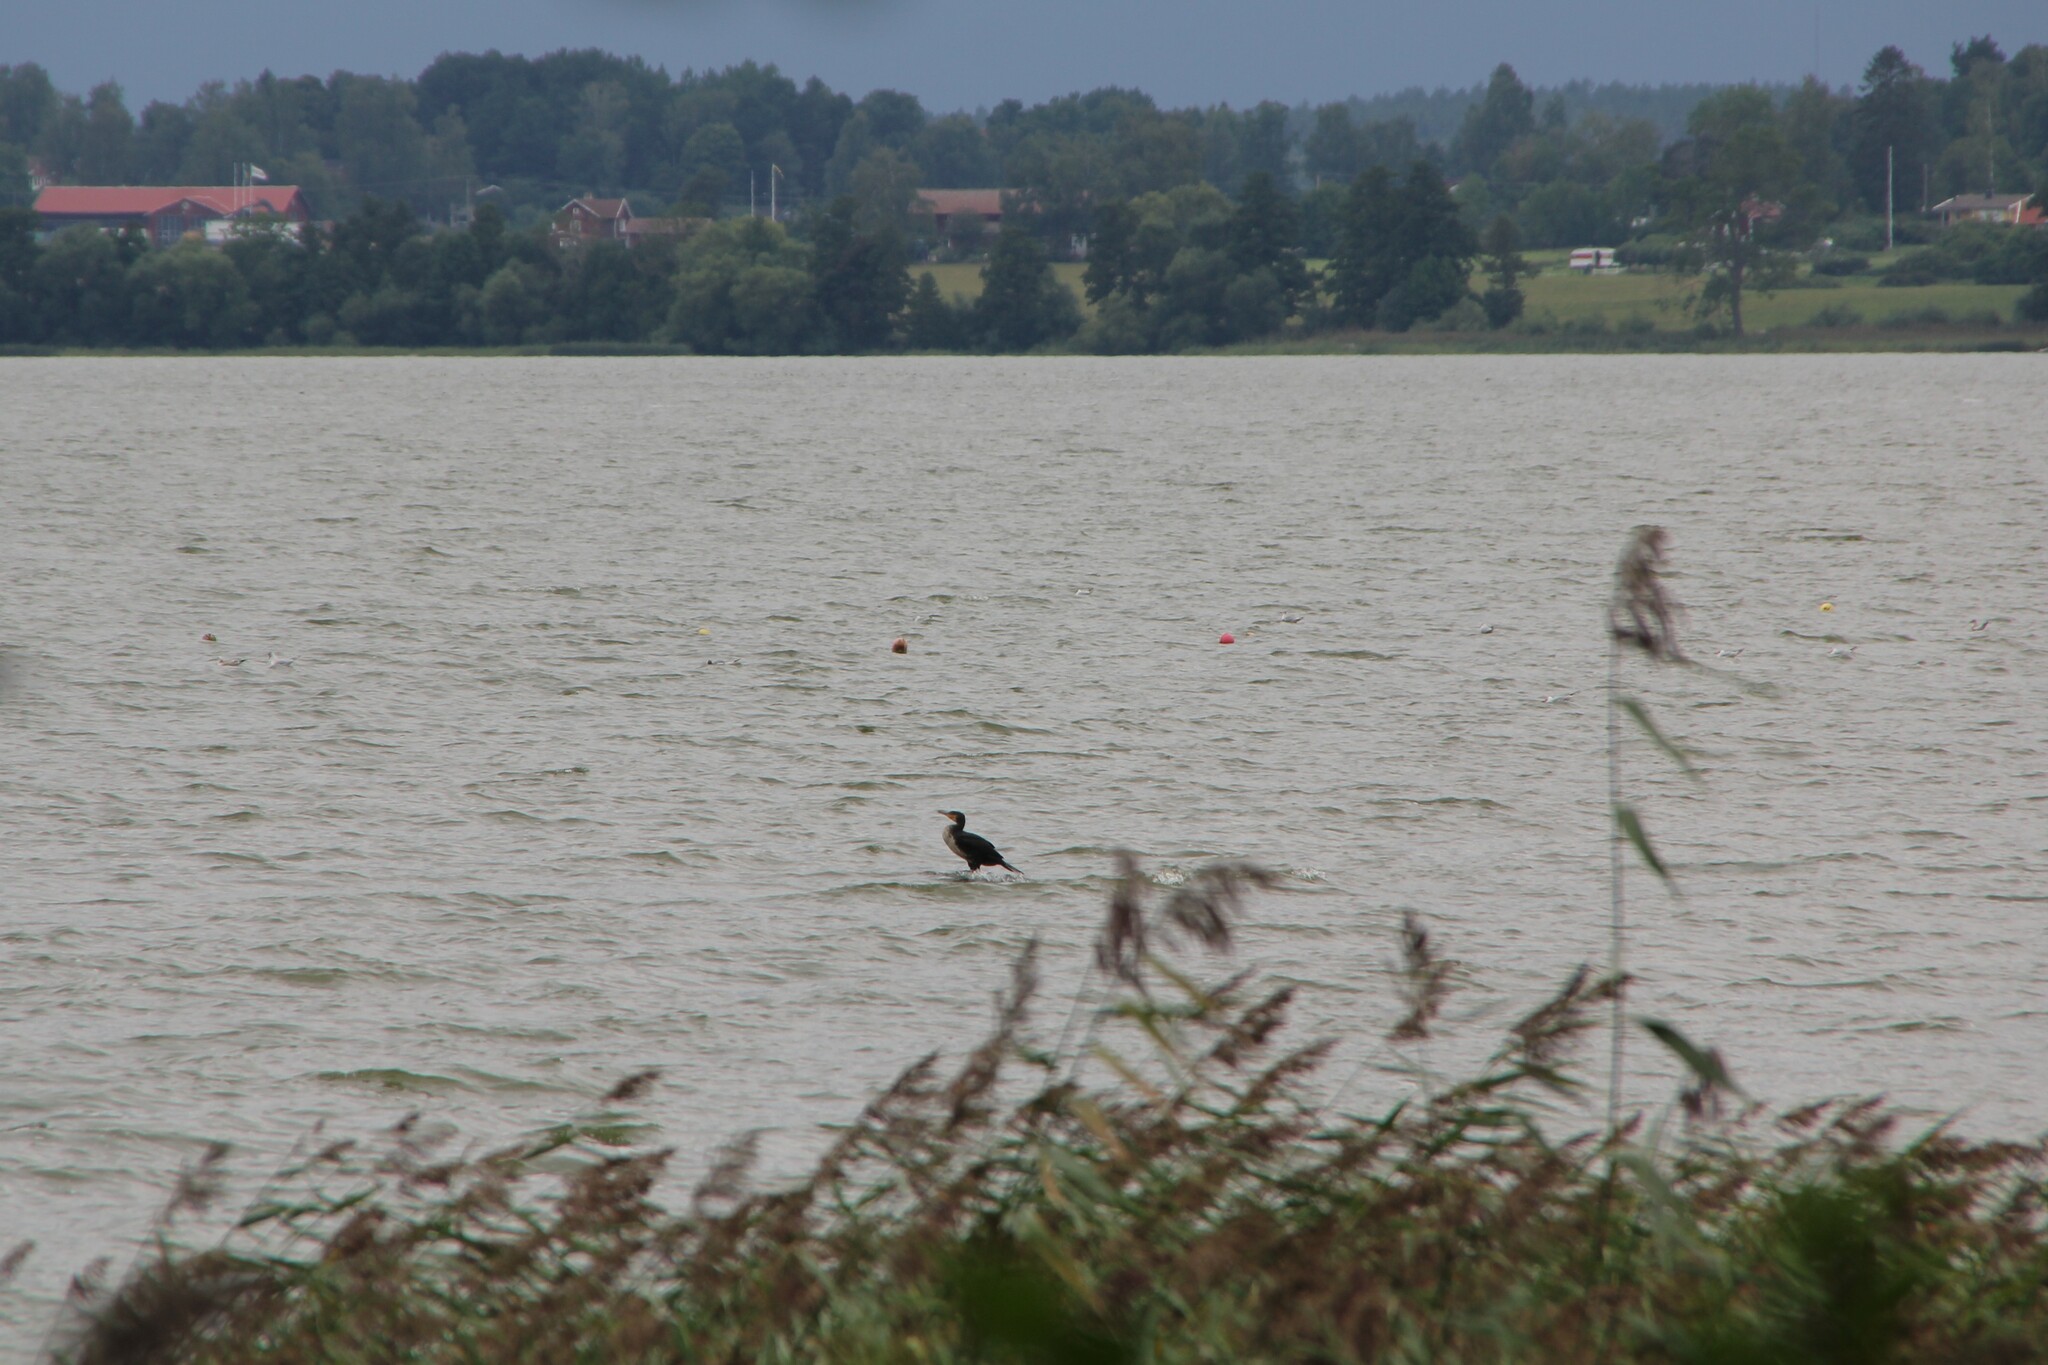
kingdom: Animalia
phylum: Chordata
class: Aves
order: Suliformes
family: Phalacrocoracidae
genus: Phalacrocorax
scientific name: Phalacrocorax carbo
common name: Great cormorant
